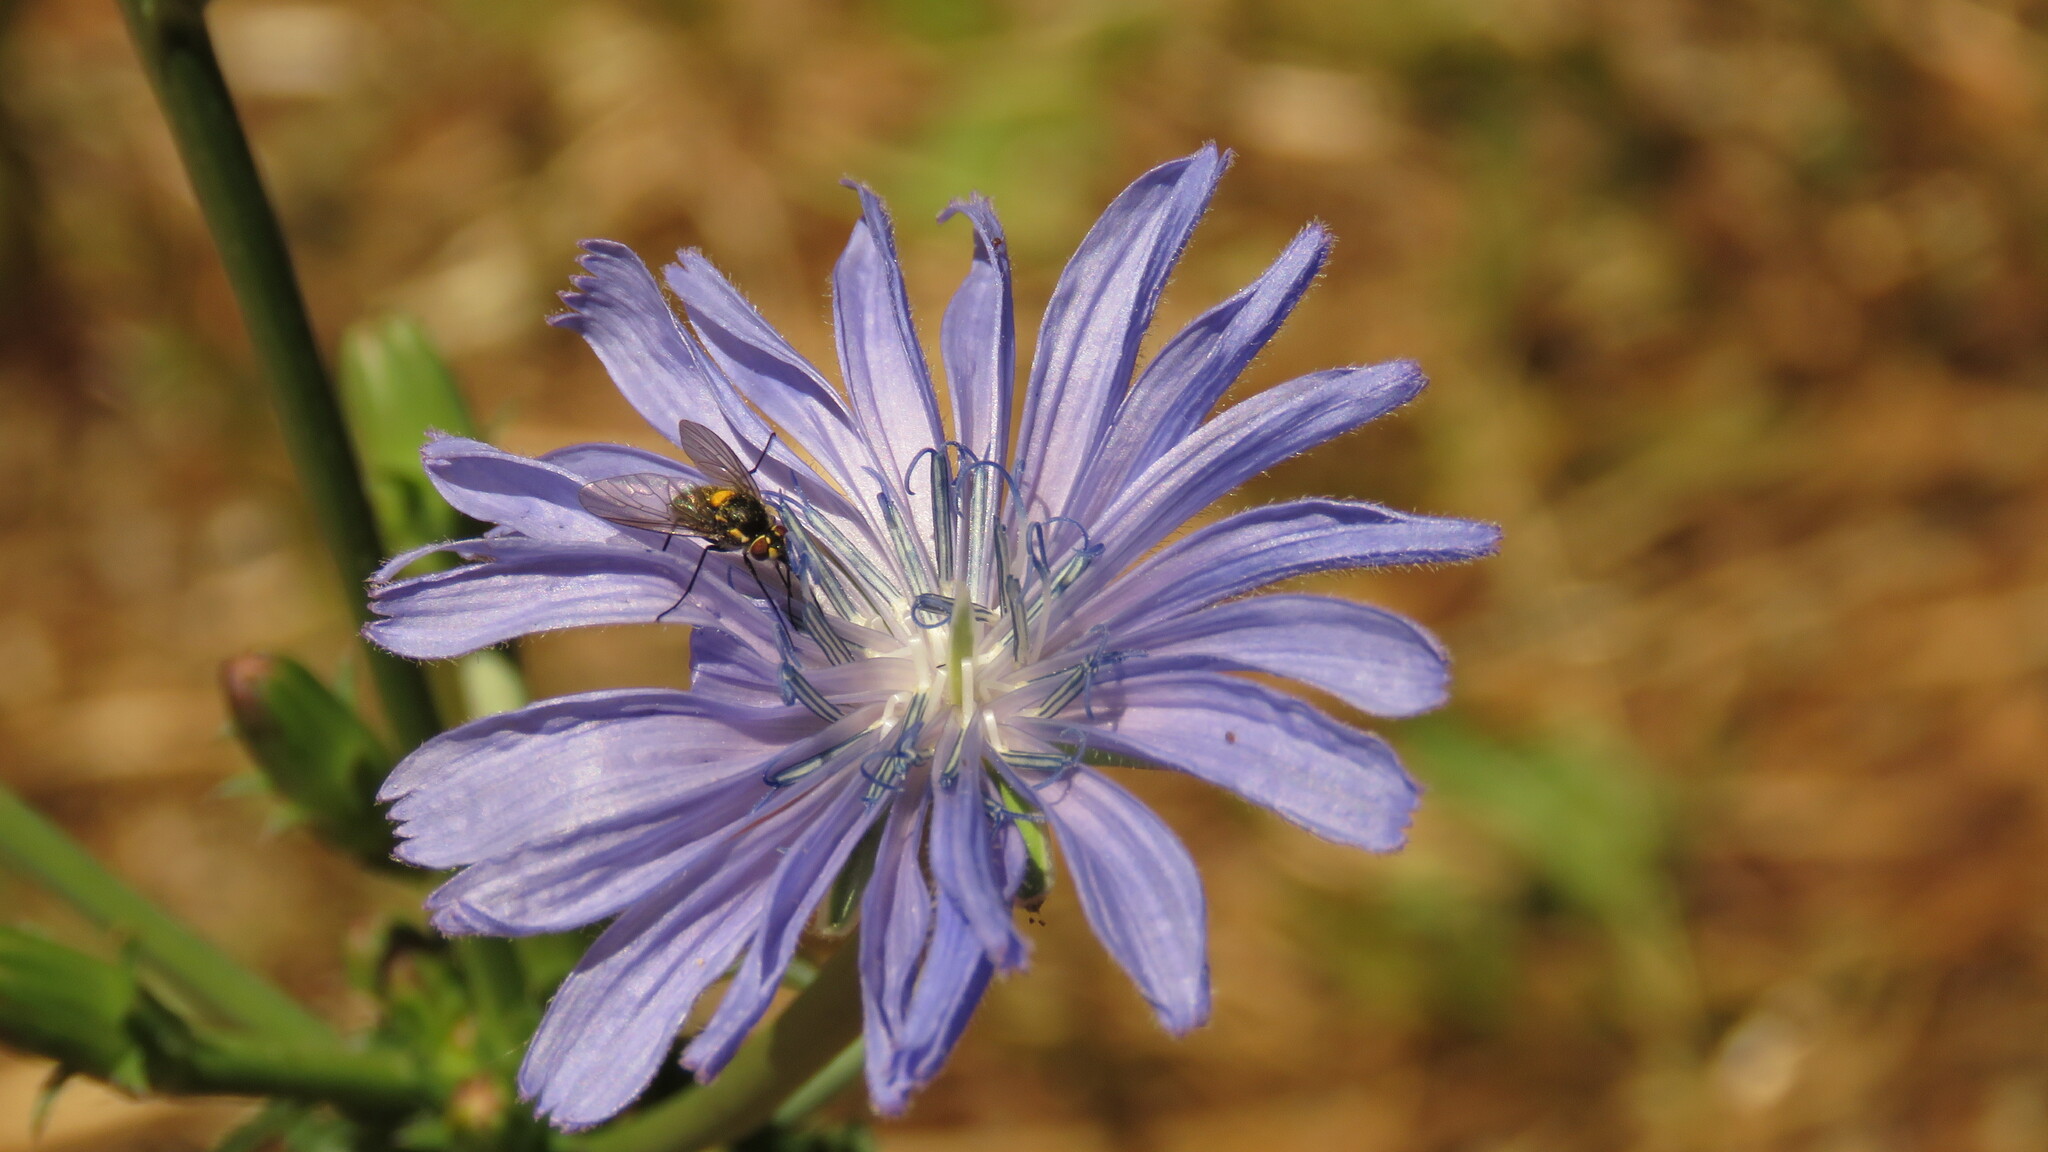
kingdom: Plantae
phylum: Tracheophyta
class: Magnoliopsida
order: Asterales
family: Asteraceae
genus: Cichorium
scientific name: Cichorium intybus
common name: Chicory
